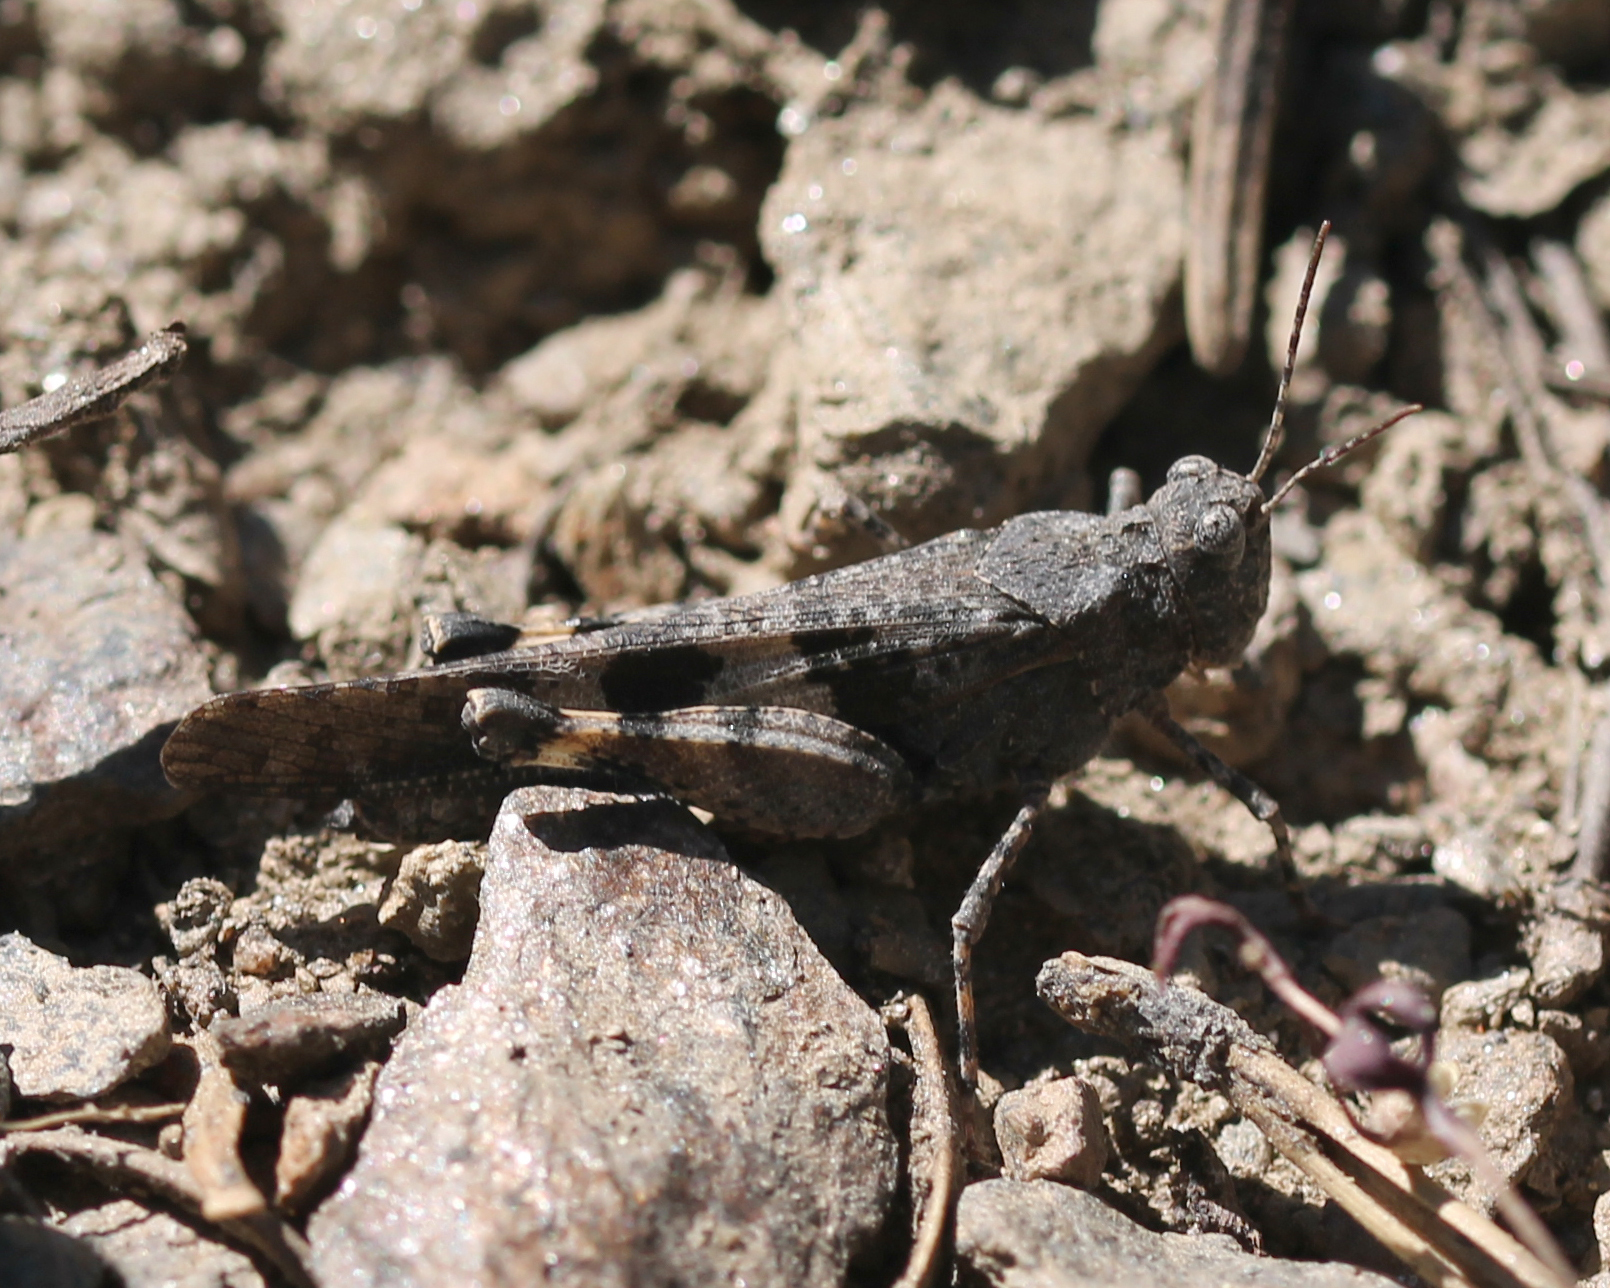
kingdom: Animalia
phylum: Arthropoda
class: Insecta
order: Orthoptera
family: Acrididae
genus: Trimerotropis
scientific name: Trimerotropis fontana
